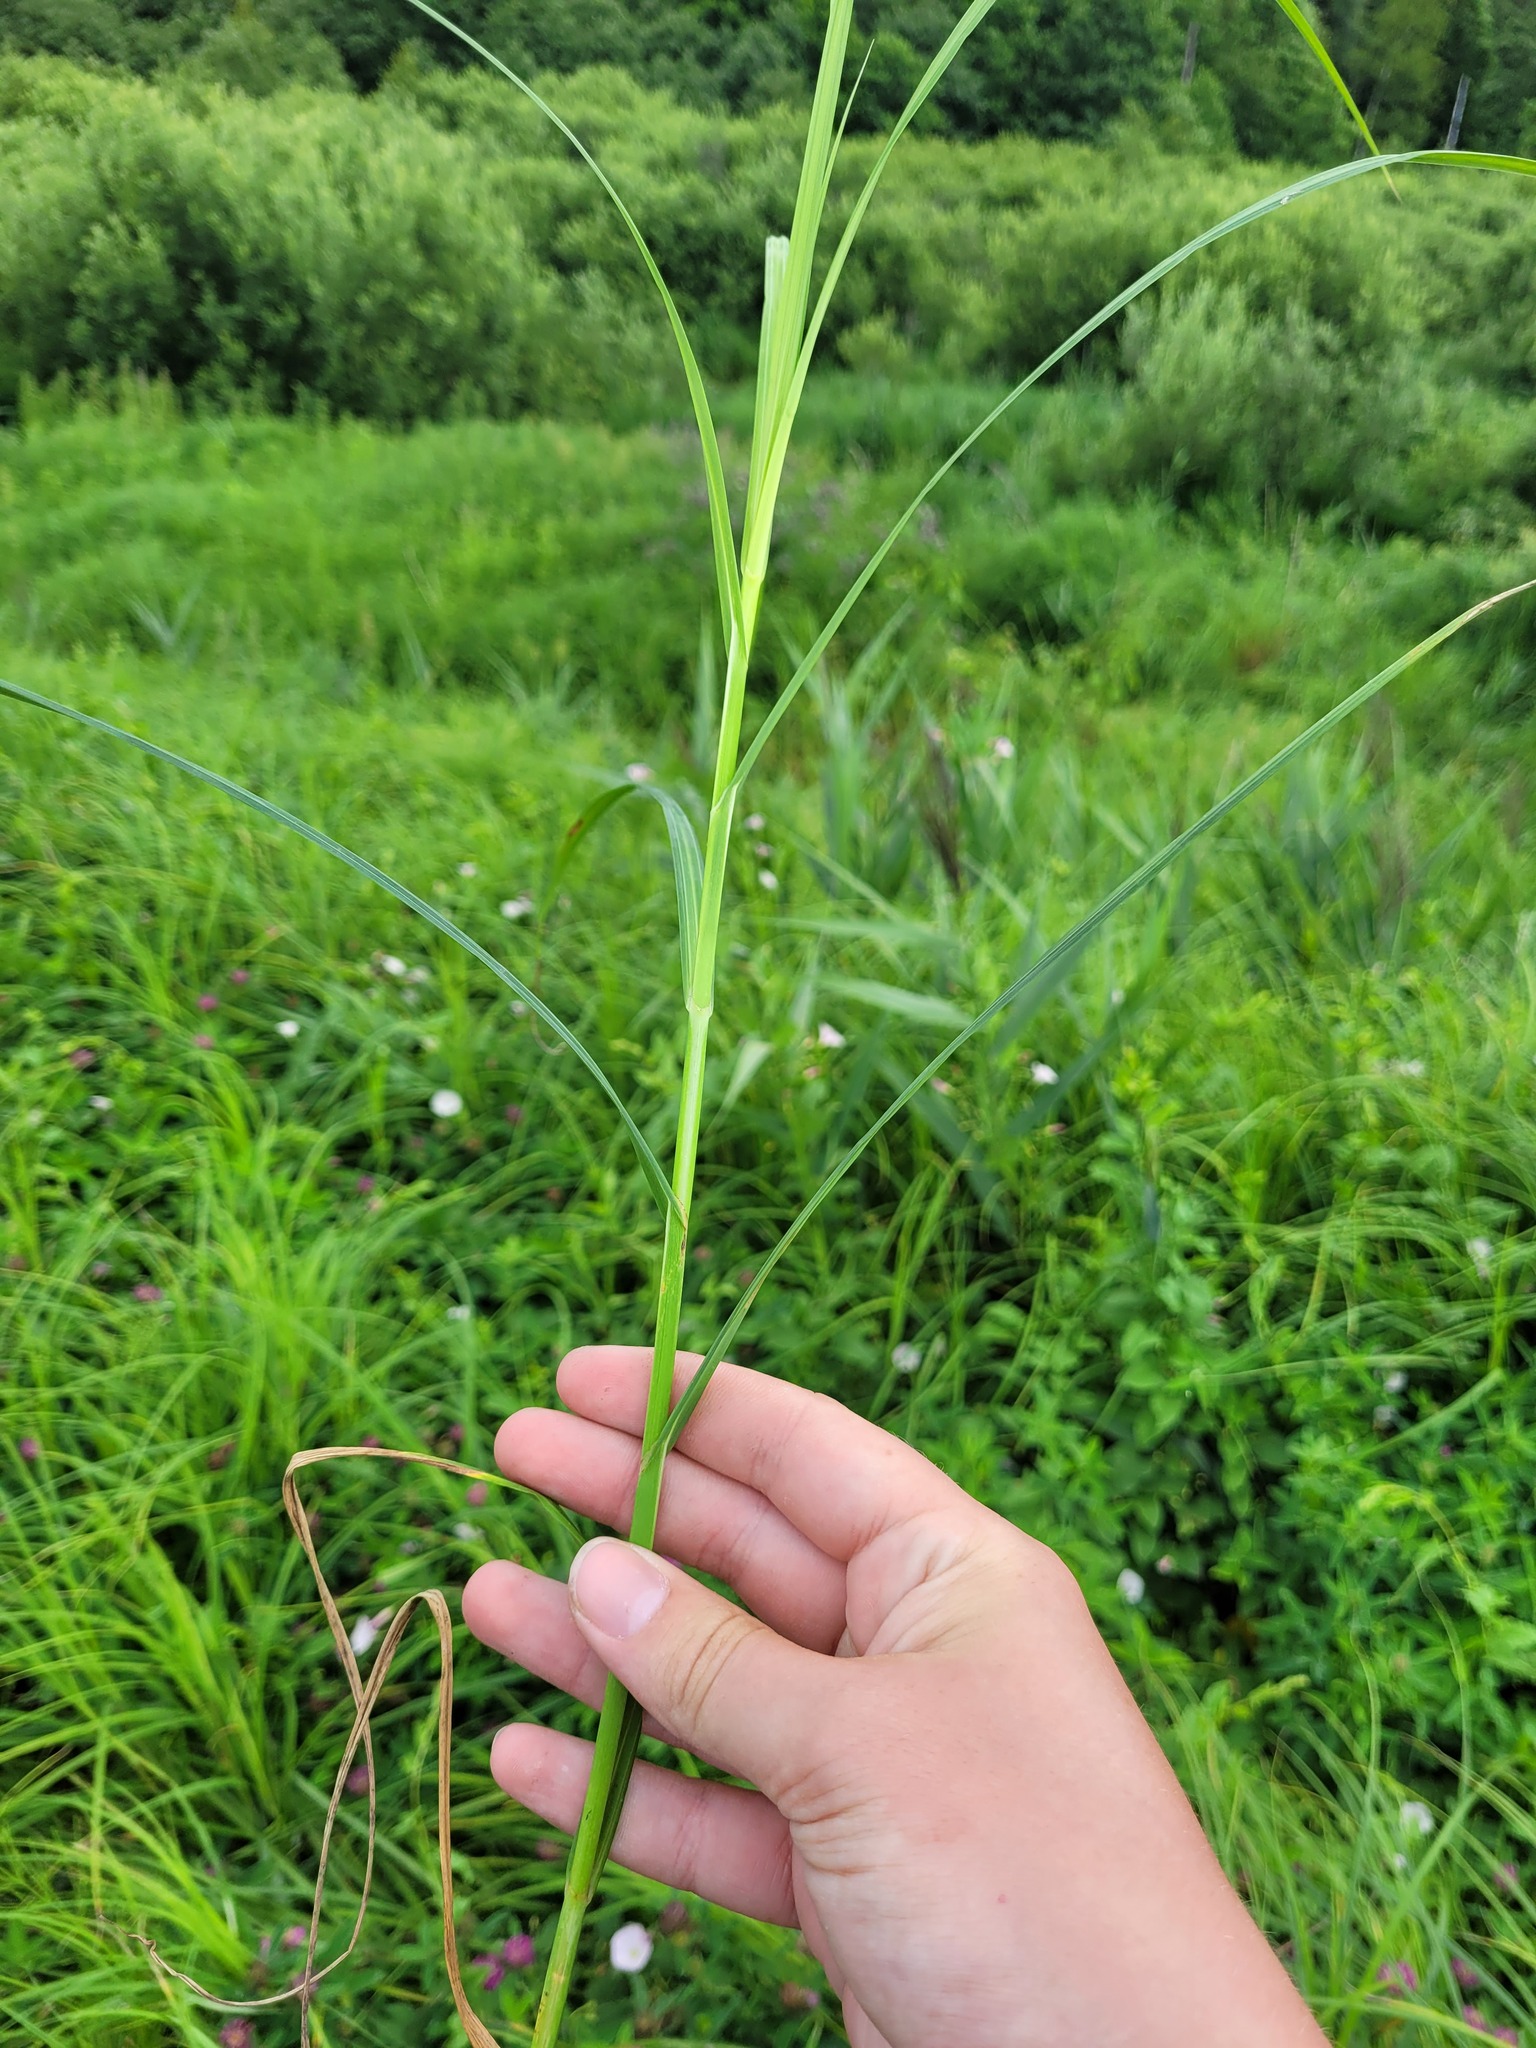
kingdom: Plantae
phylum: Tracheophyta
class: Liliopsida
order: Poales
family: Cyperaceae
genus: Carex
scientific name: Carex atherodes
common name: Wheat sedge
